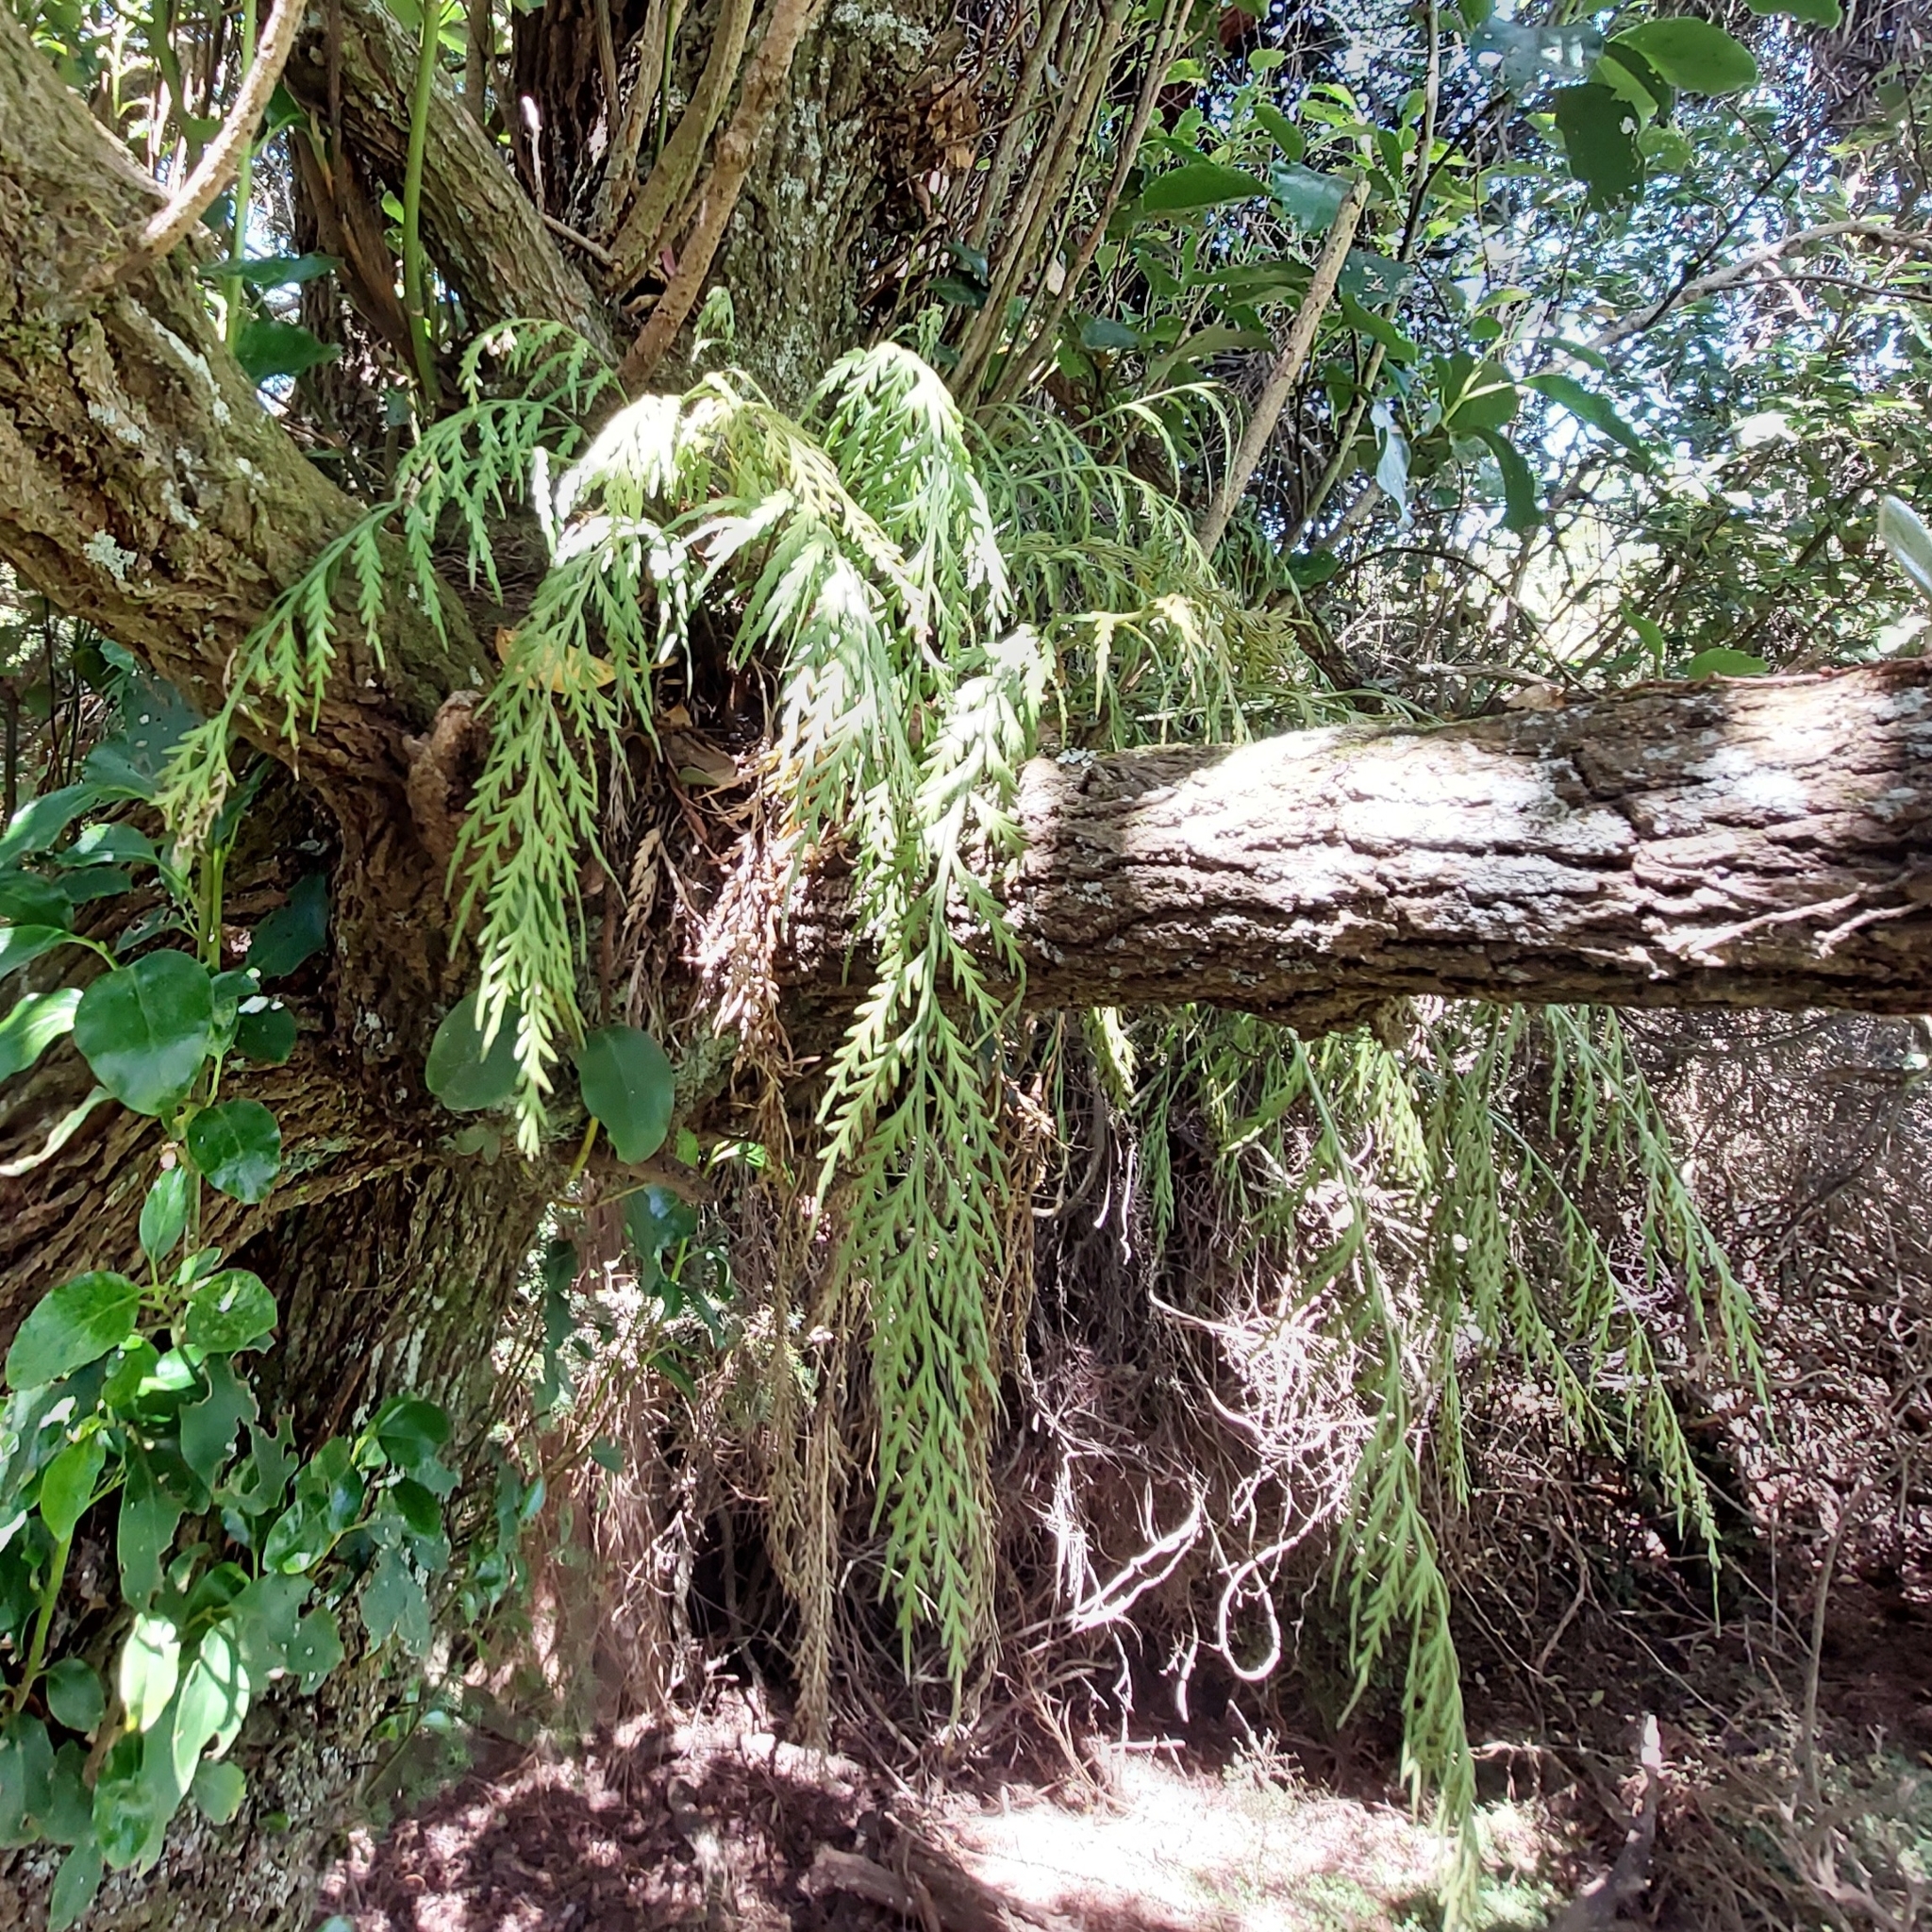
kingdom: Plantae
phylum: Tracheophyta
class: Polypodiopsida
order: Polypodiales
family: Aspleniaceae
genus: Asplenium
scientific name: Asplenium flaccidum
